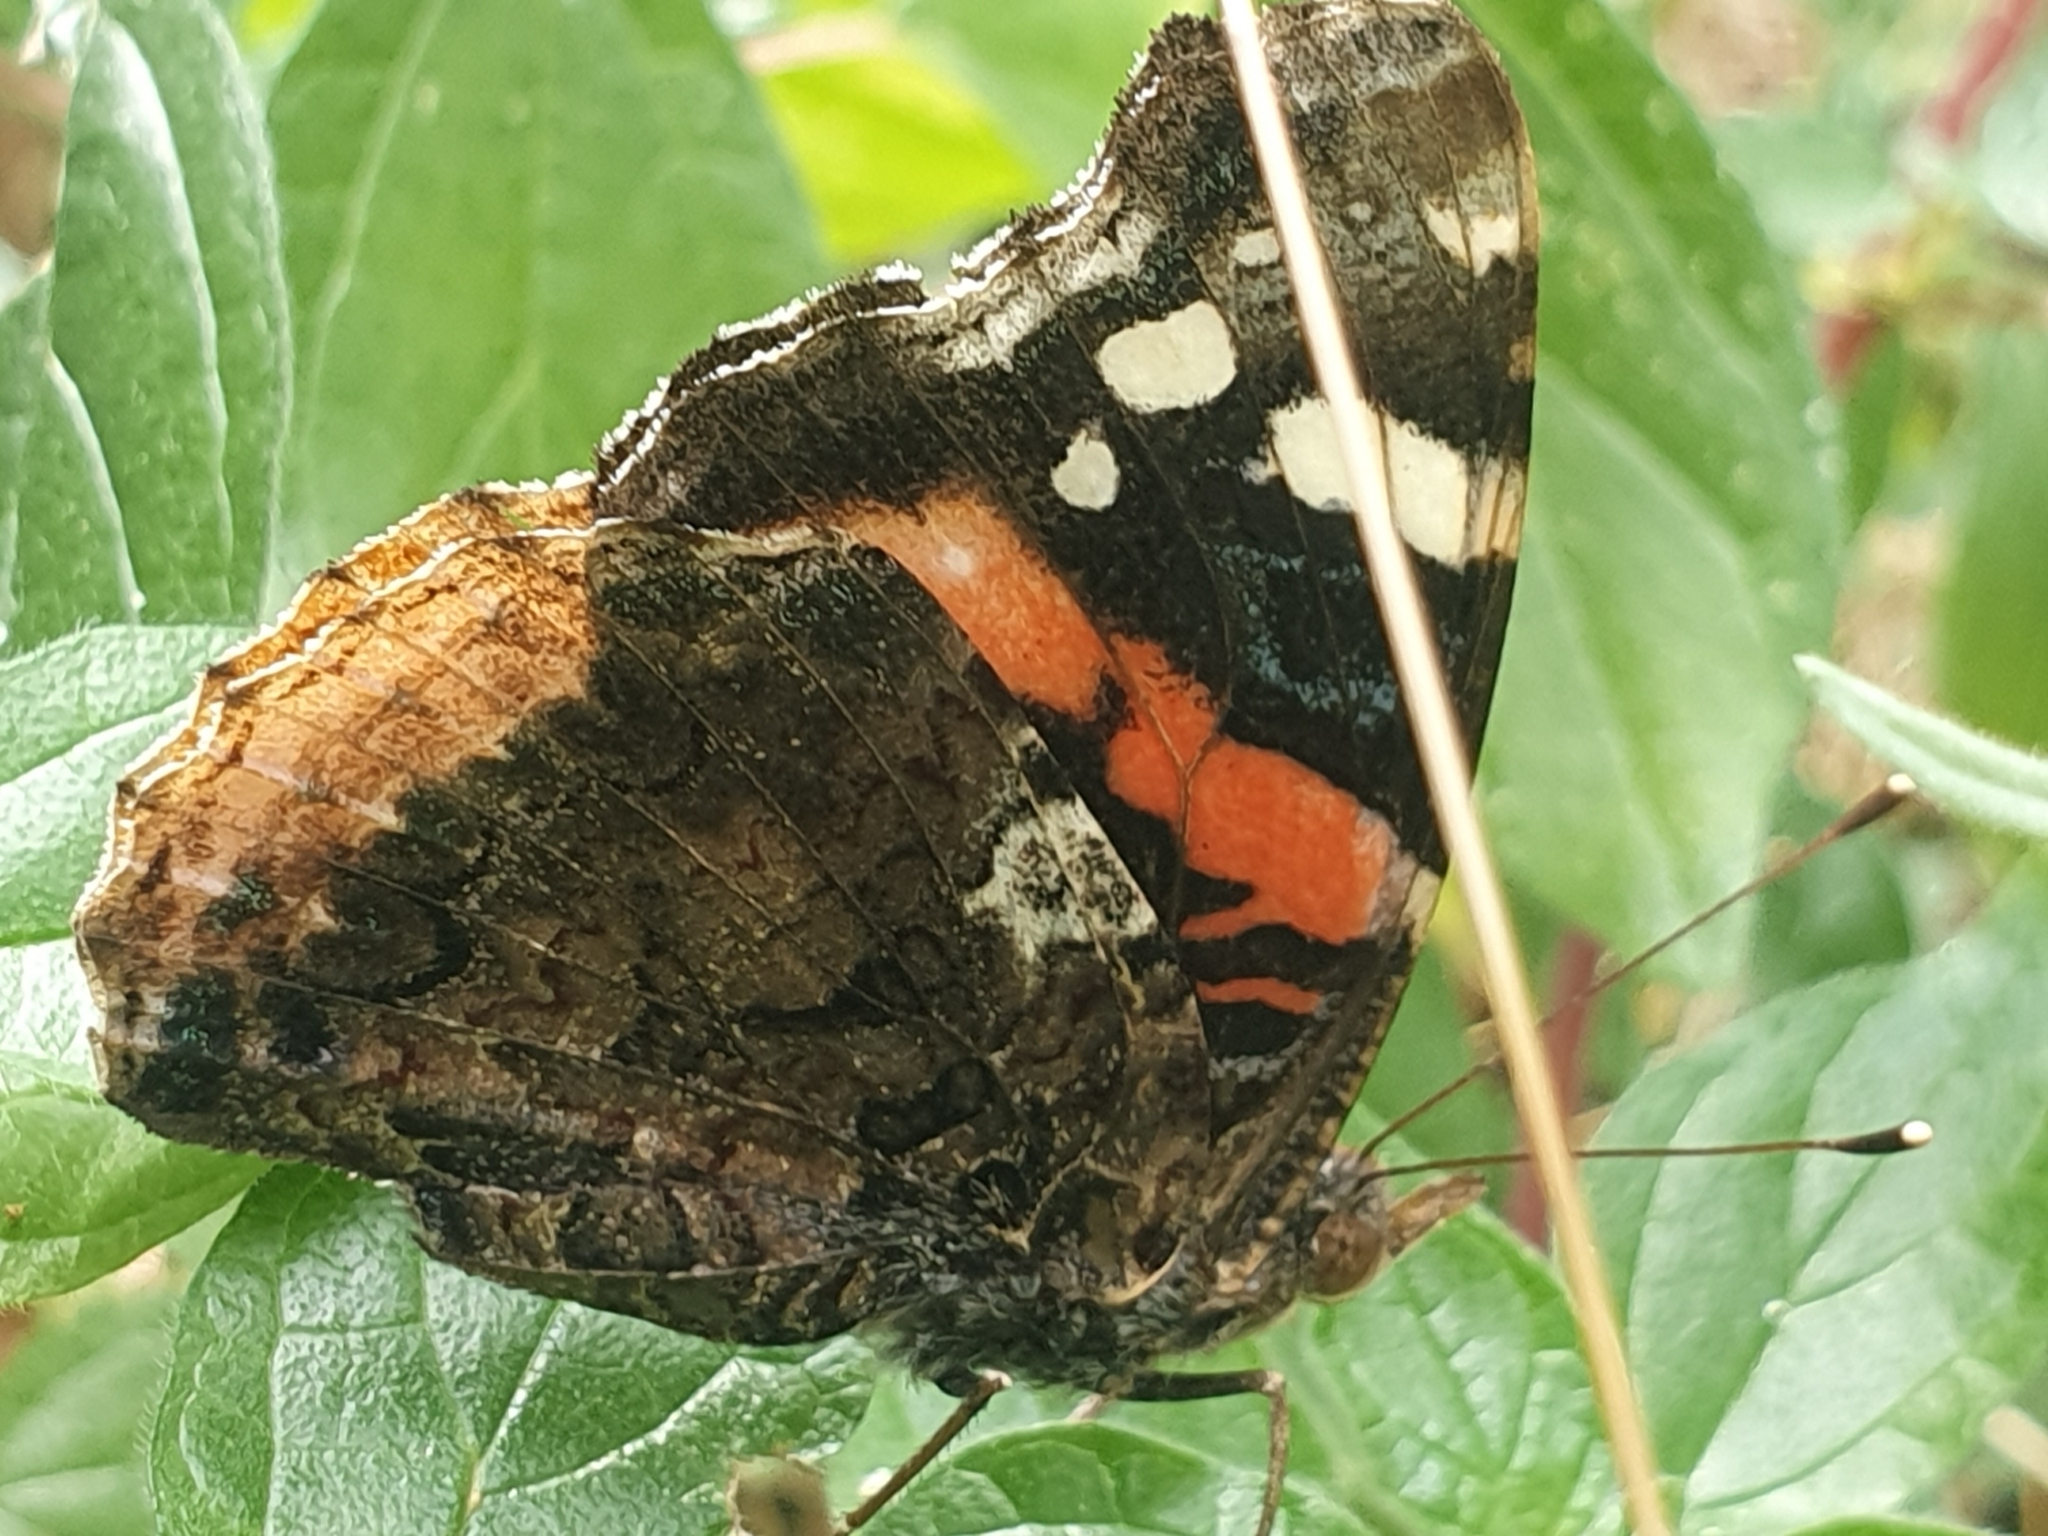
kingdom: Animalia
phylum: Arthropoda
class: Insecta
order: Lepidoptera
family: Nymphalidae
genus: Vanessa
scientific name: Vanessa atalanta
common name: Red admiral
